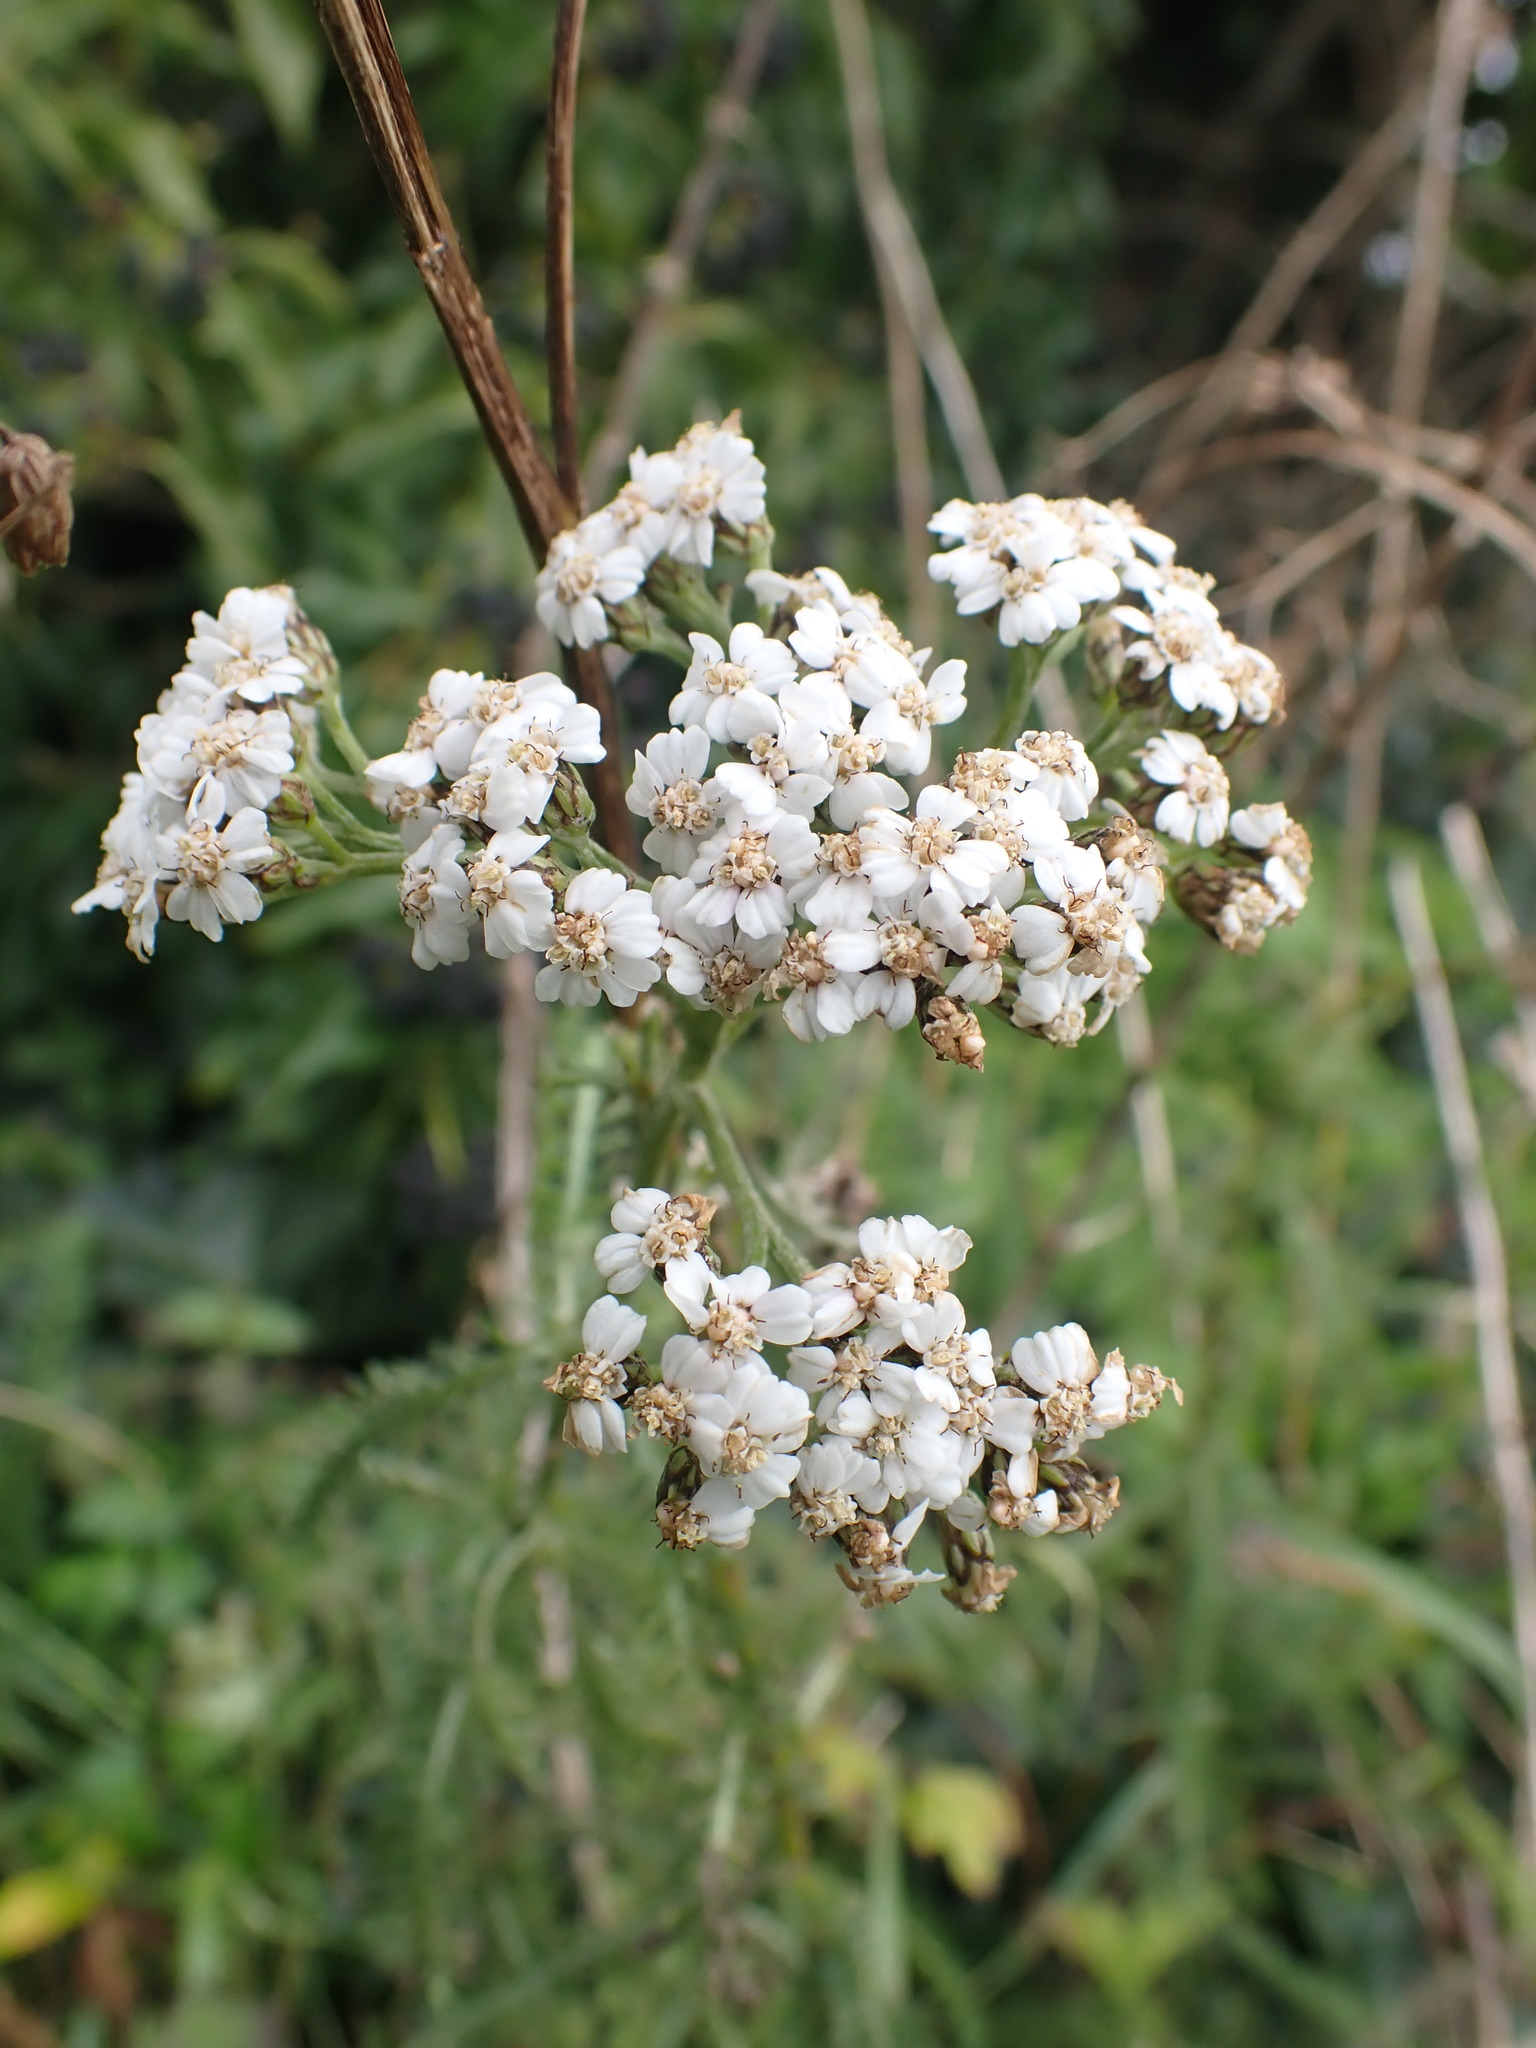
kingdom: Plantae
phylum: Tracheophyta
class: Magnoliopsida
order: Asterales
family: Asteraceae
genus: Achillea
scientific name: Achillea millefolium
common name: Yarrow
